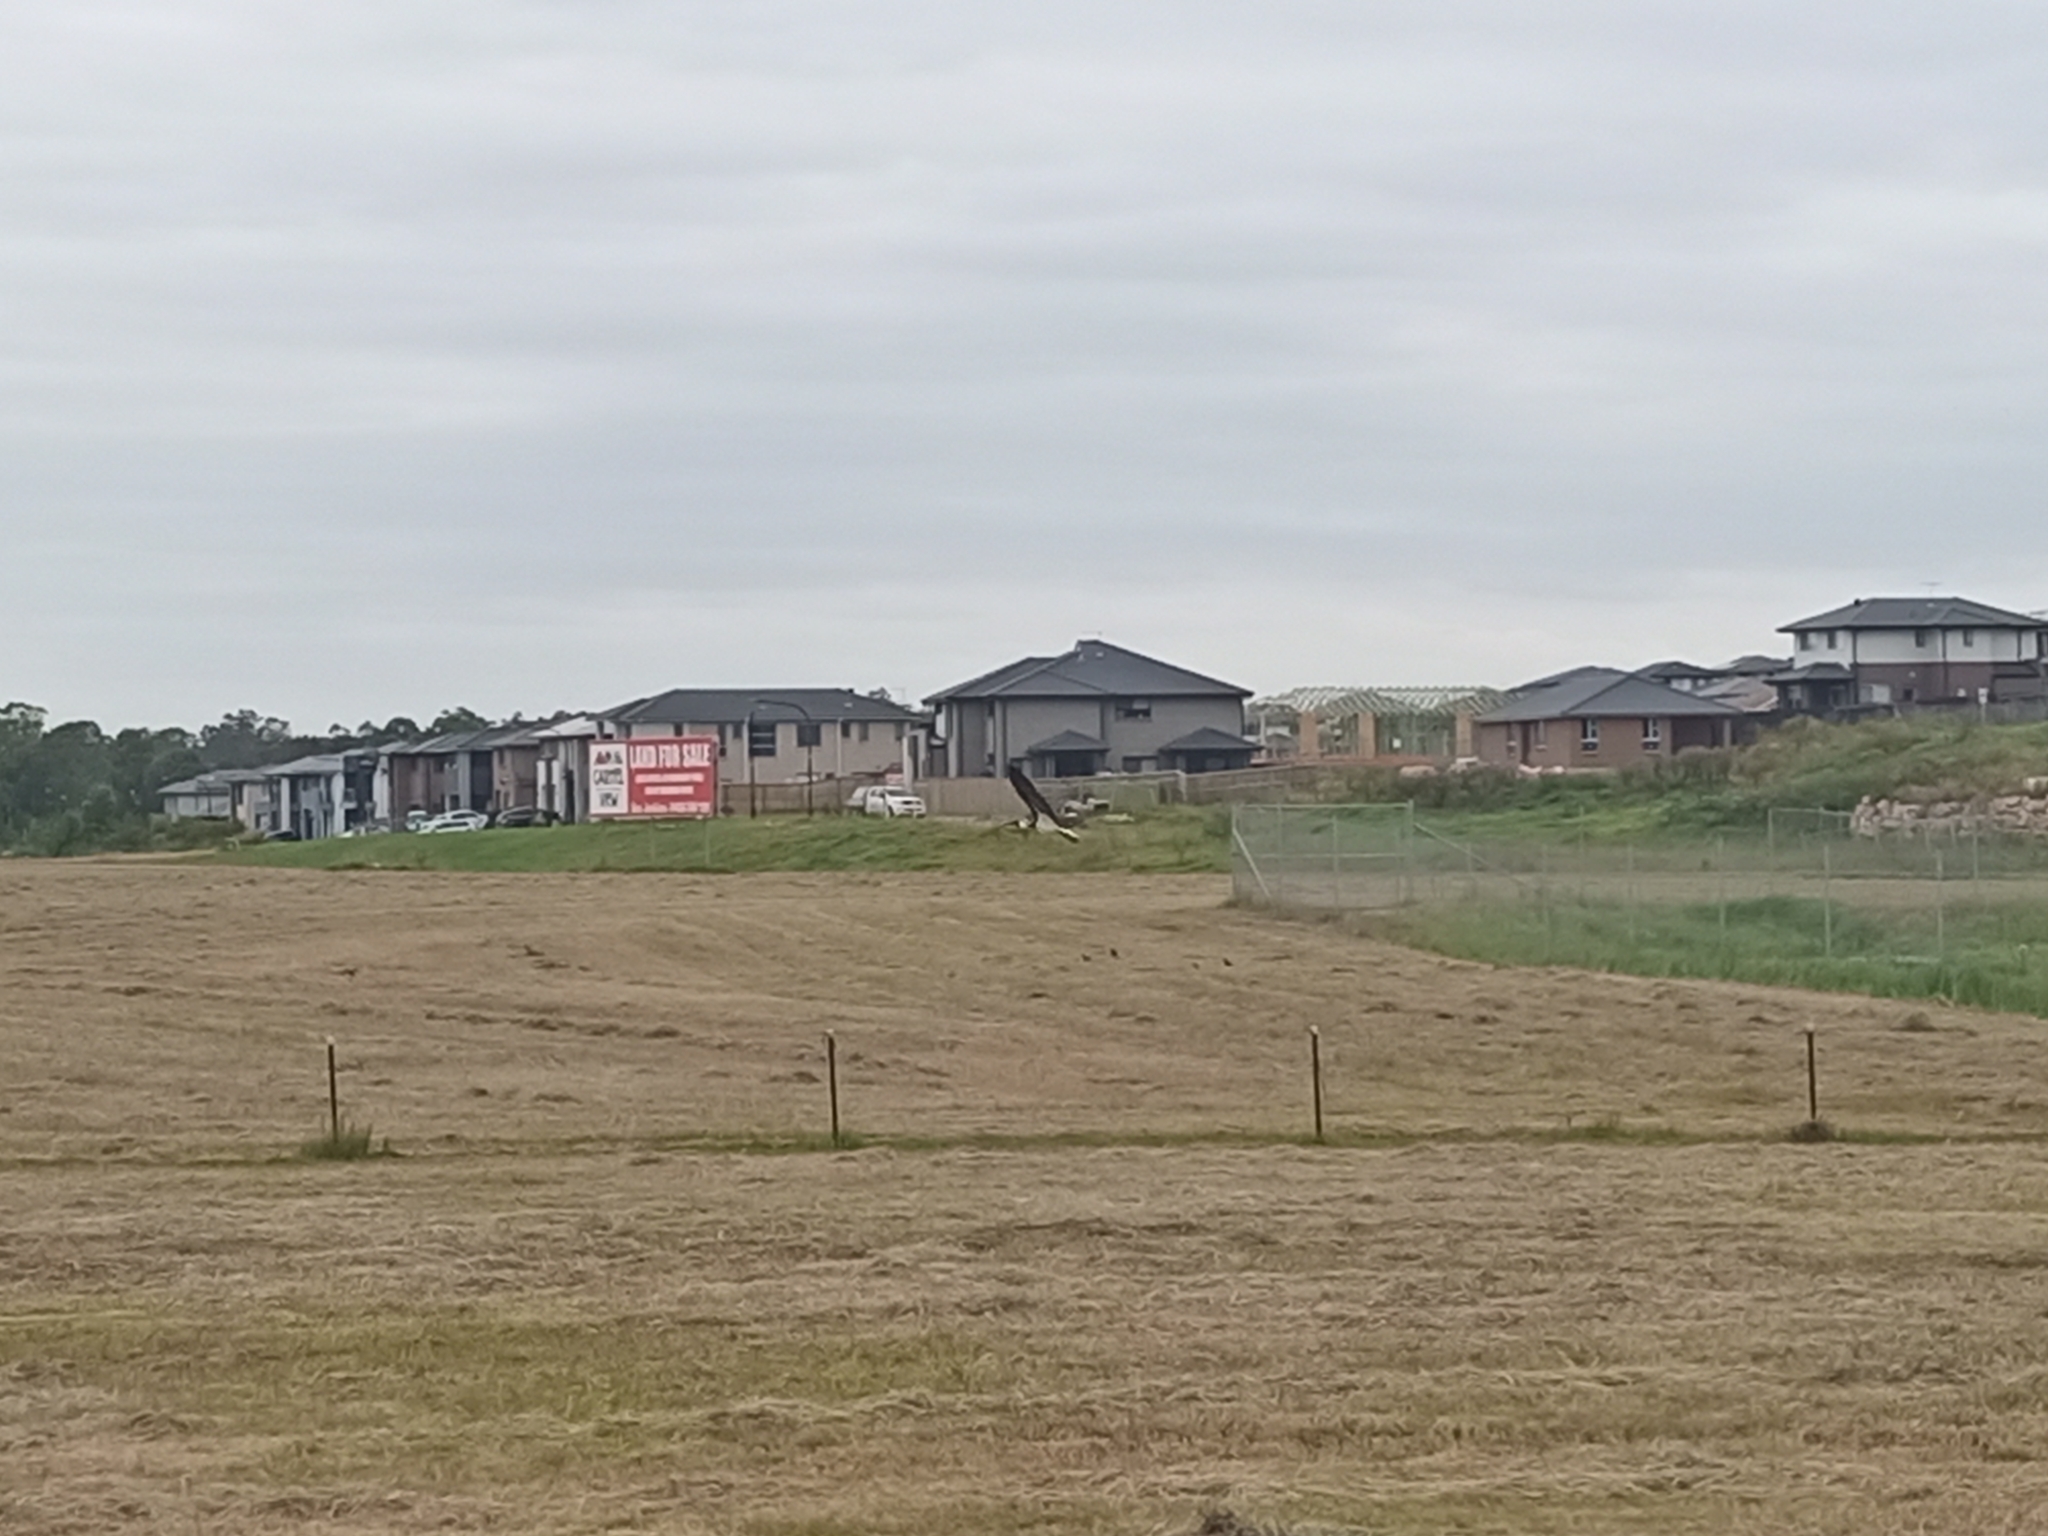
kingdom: Animalia
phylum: Chordata
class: Aves
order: Pelecaniformes
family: Threskiornithidae
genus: Threskiornis
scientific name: Threskiornis spinicollis
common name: Straw-necked ibis
